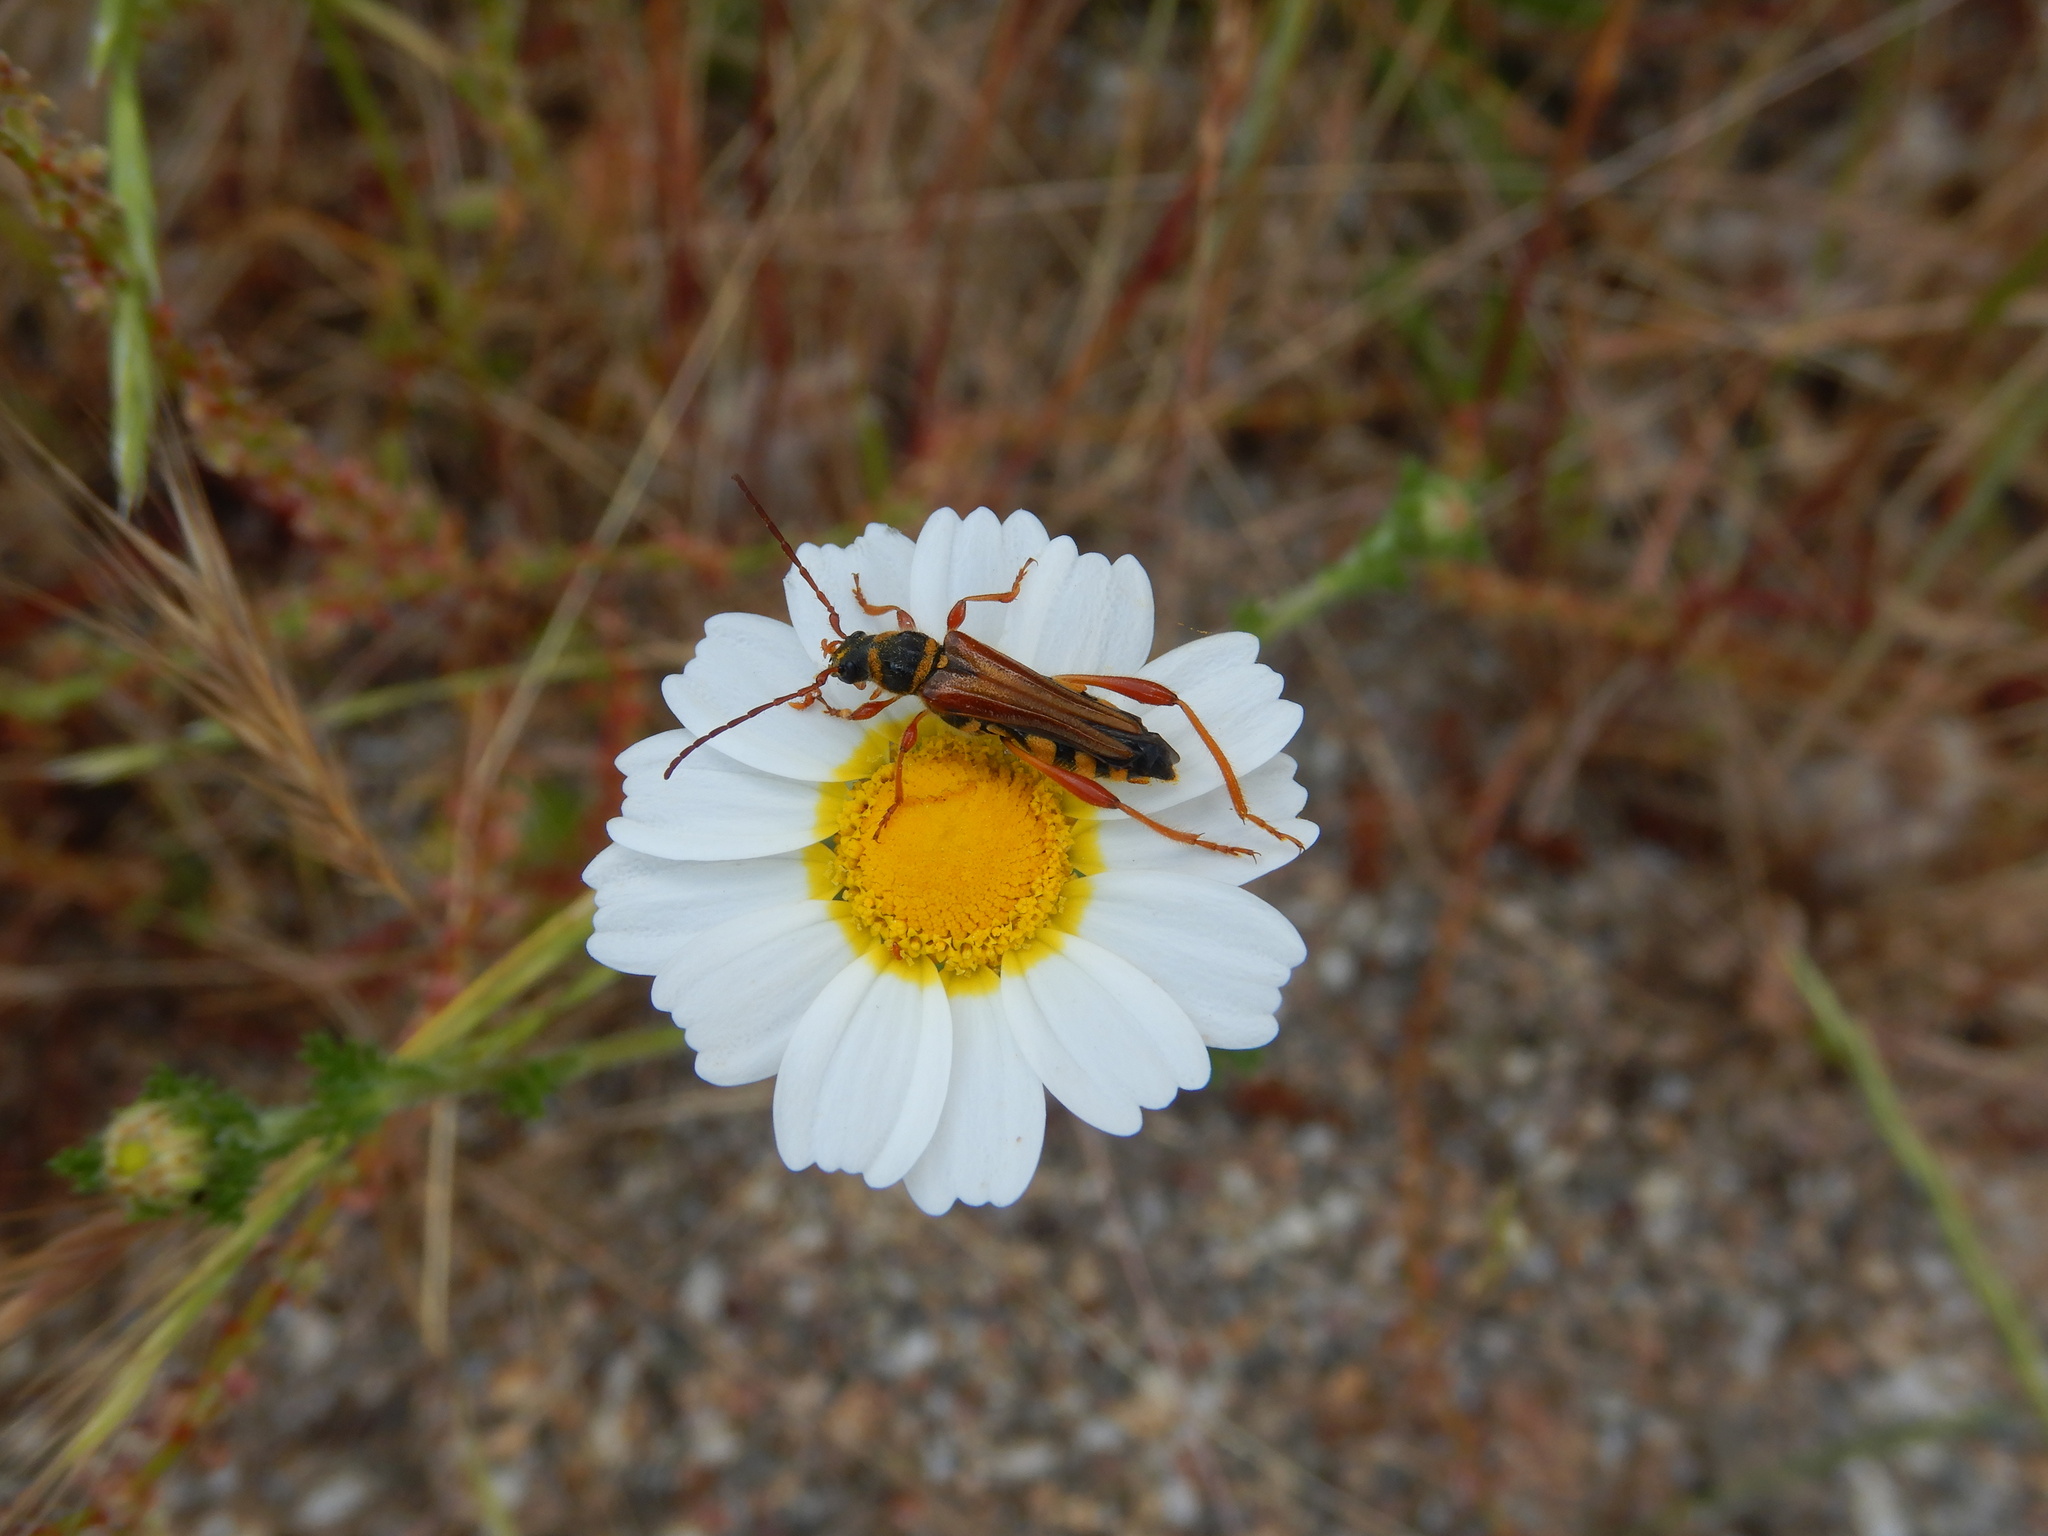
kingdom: Animalia
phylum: Arthropoda
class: Insecta
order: Coleoptera
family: Cerambycidae
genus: Stenopterus
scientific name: Stenopterus mauritanicus
